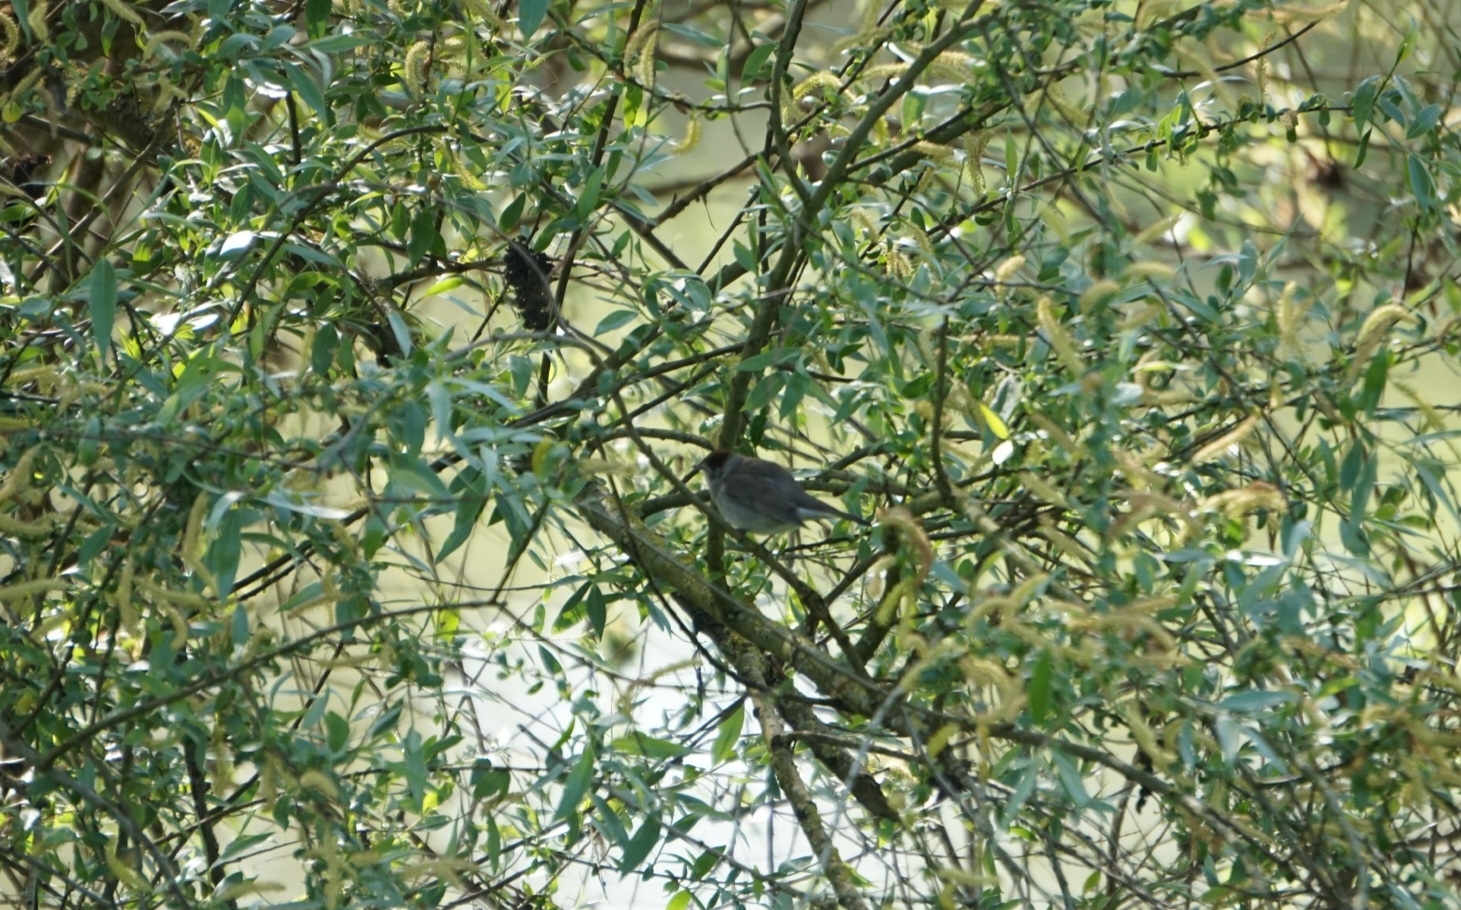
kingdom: Animalia
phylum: Chordata
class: Aves
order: Passeriformes
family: Sylviidae
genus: Sylvia
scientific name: Sylvia atricapilla
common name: Eurasian blackcap
